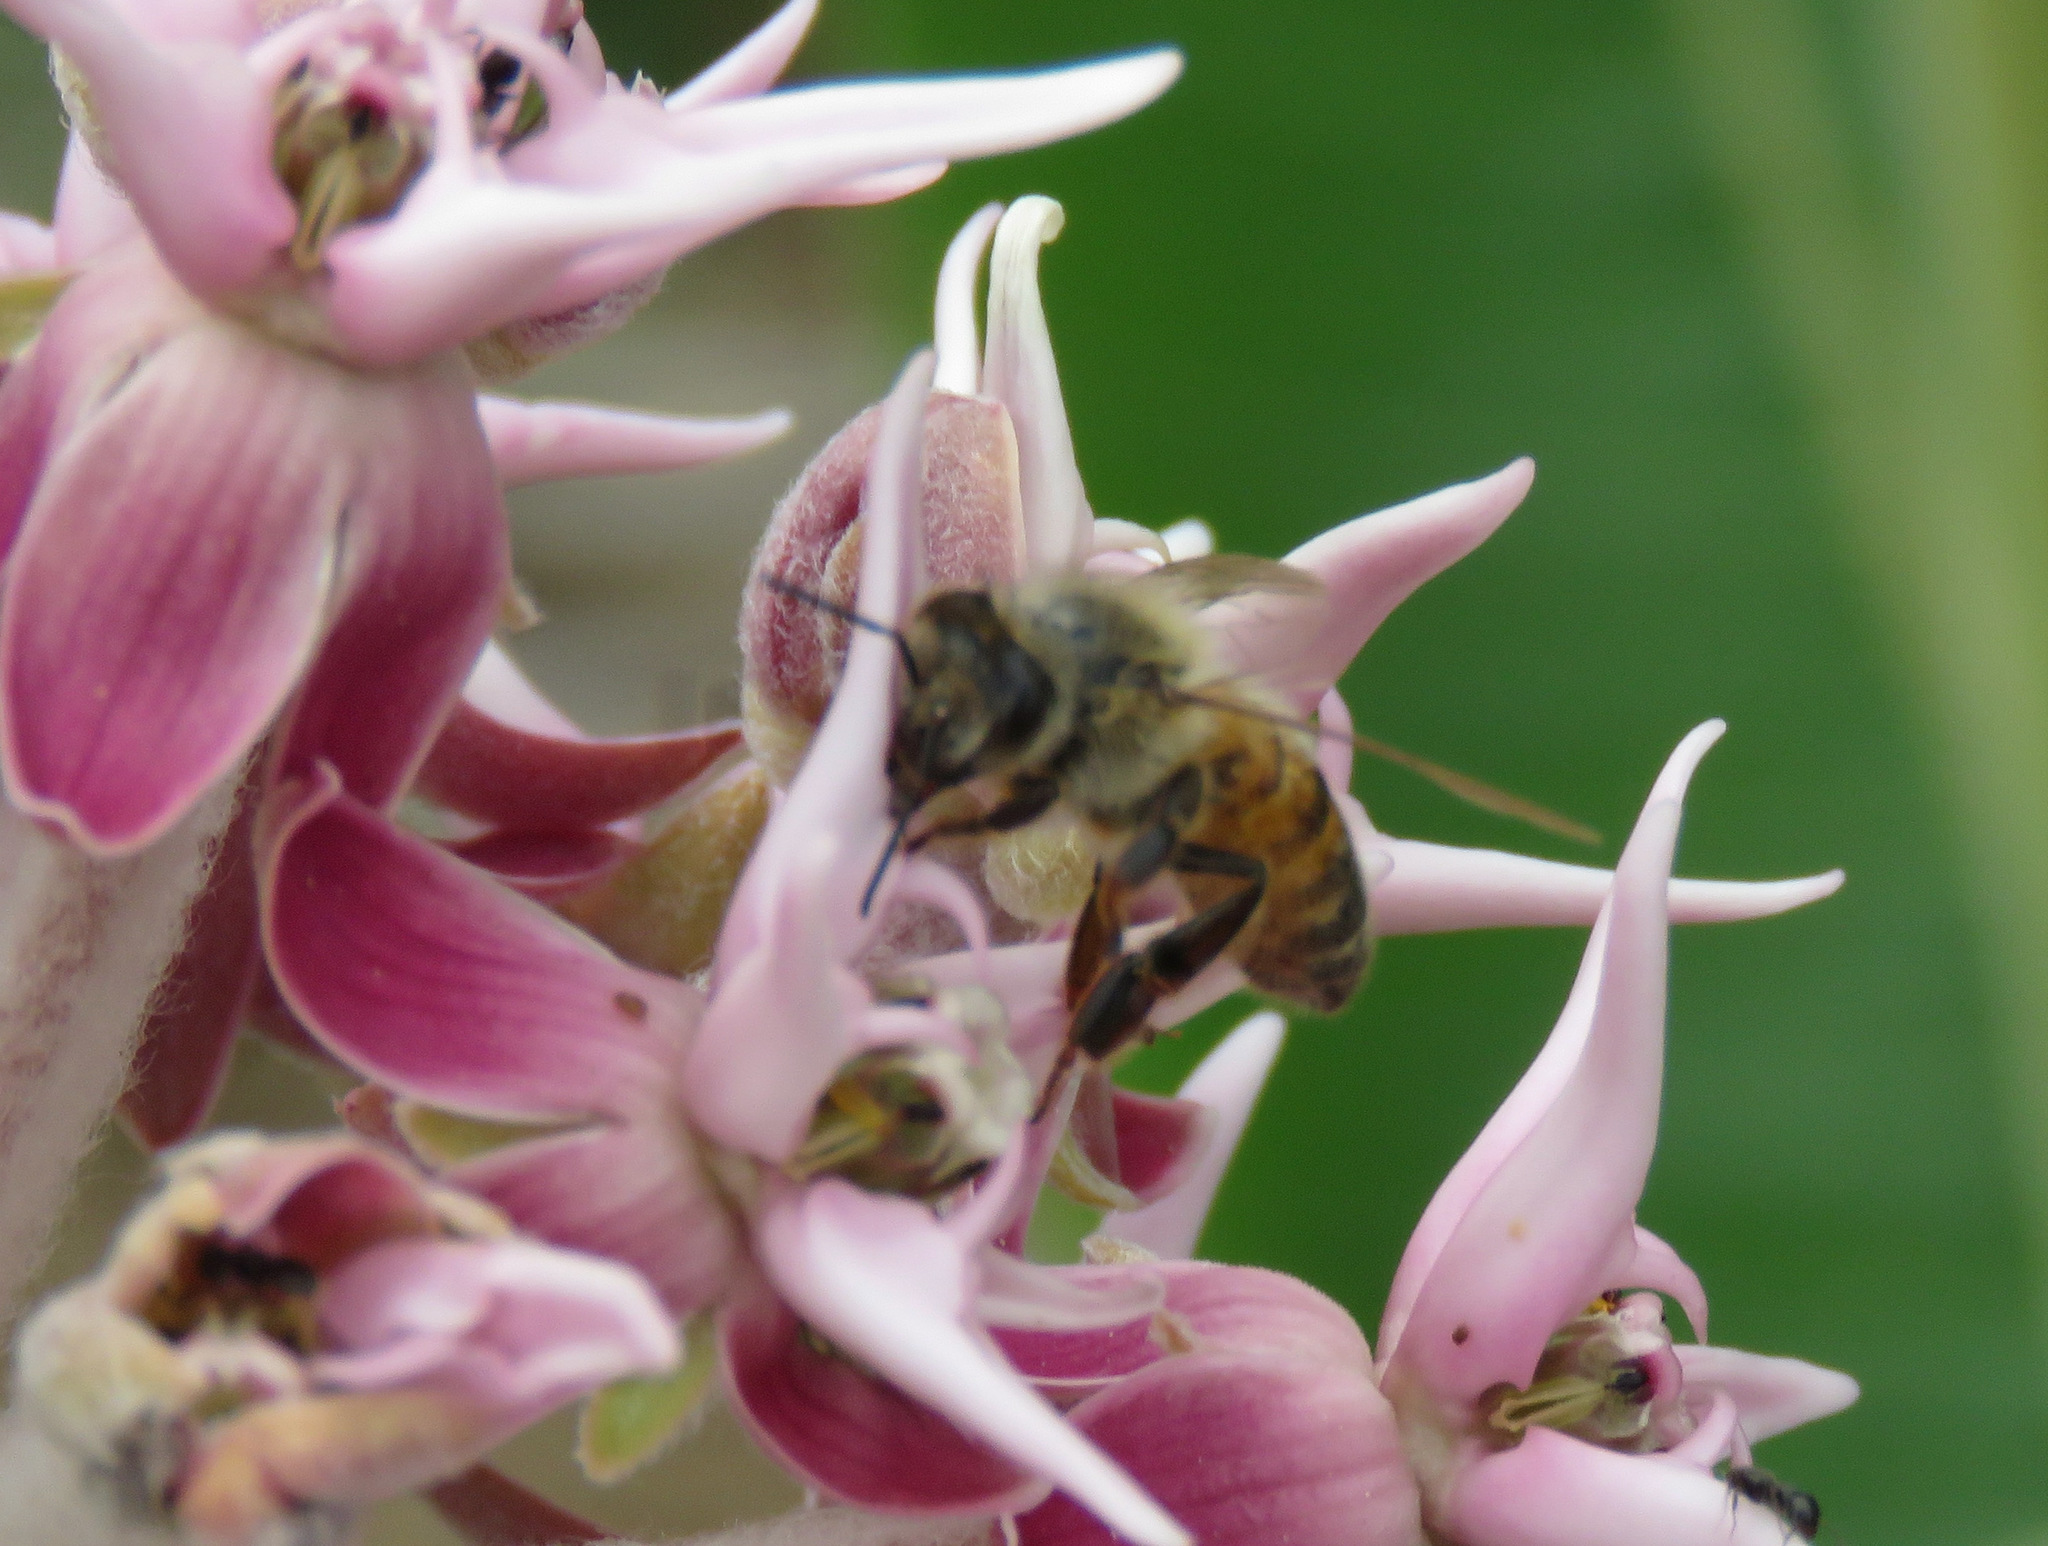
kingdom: Animalia
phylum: Arthropoda
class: Insecta
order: Hymenoptera
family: Apidae
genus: Apis
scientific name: Apis mellifera
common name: Honey bee
